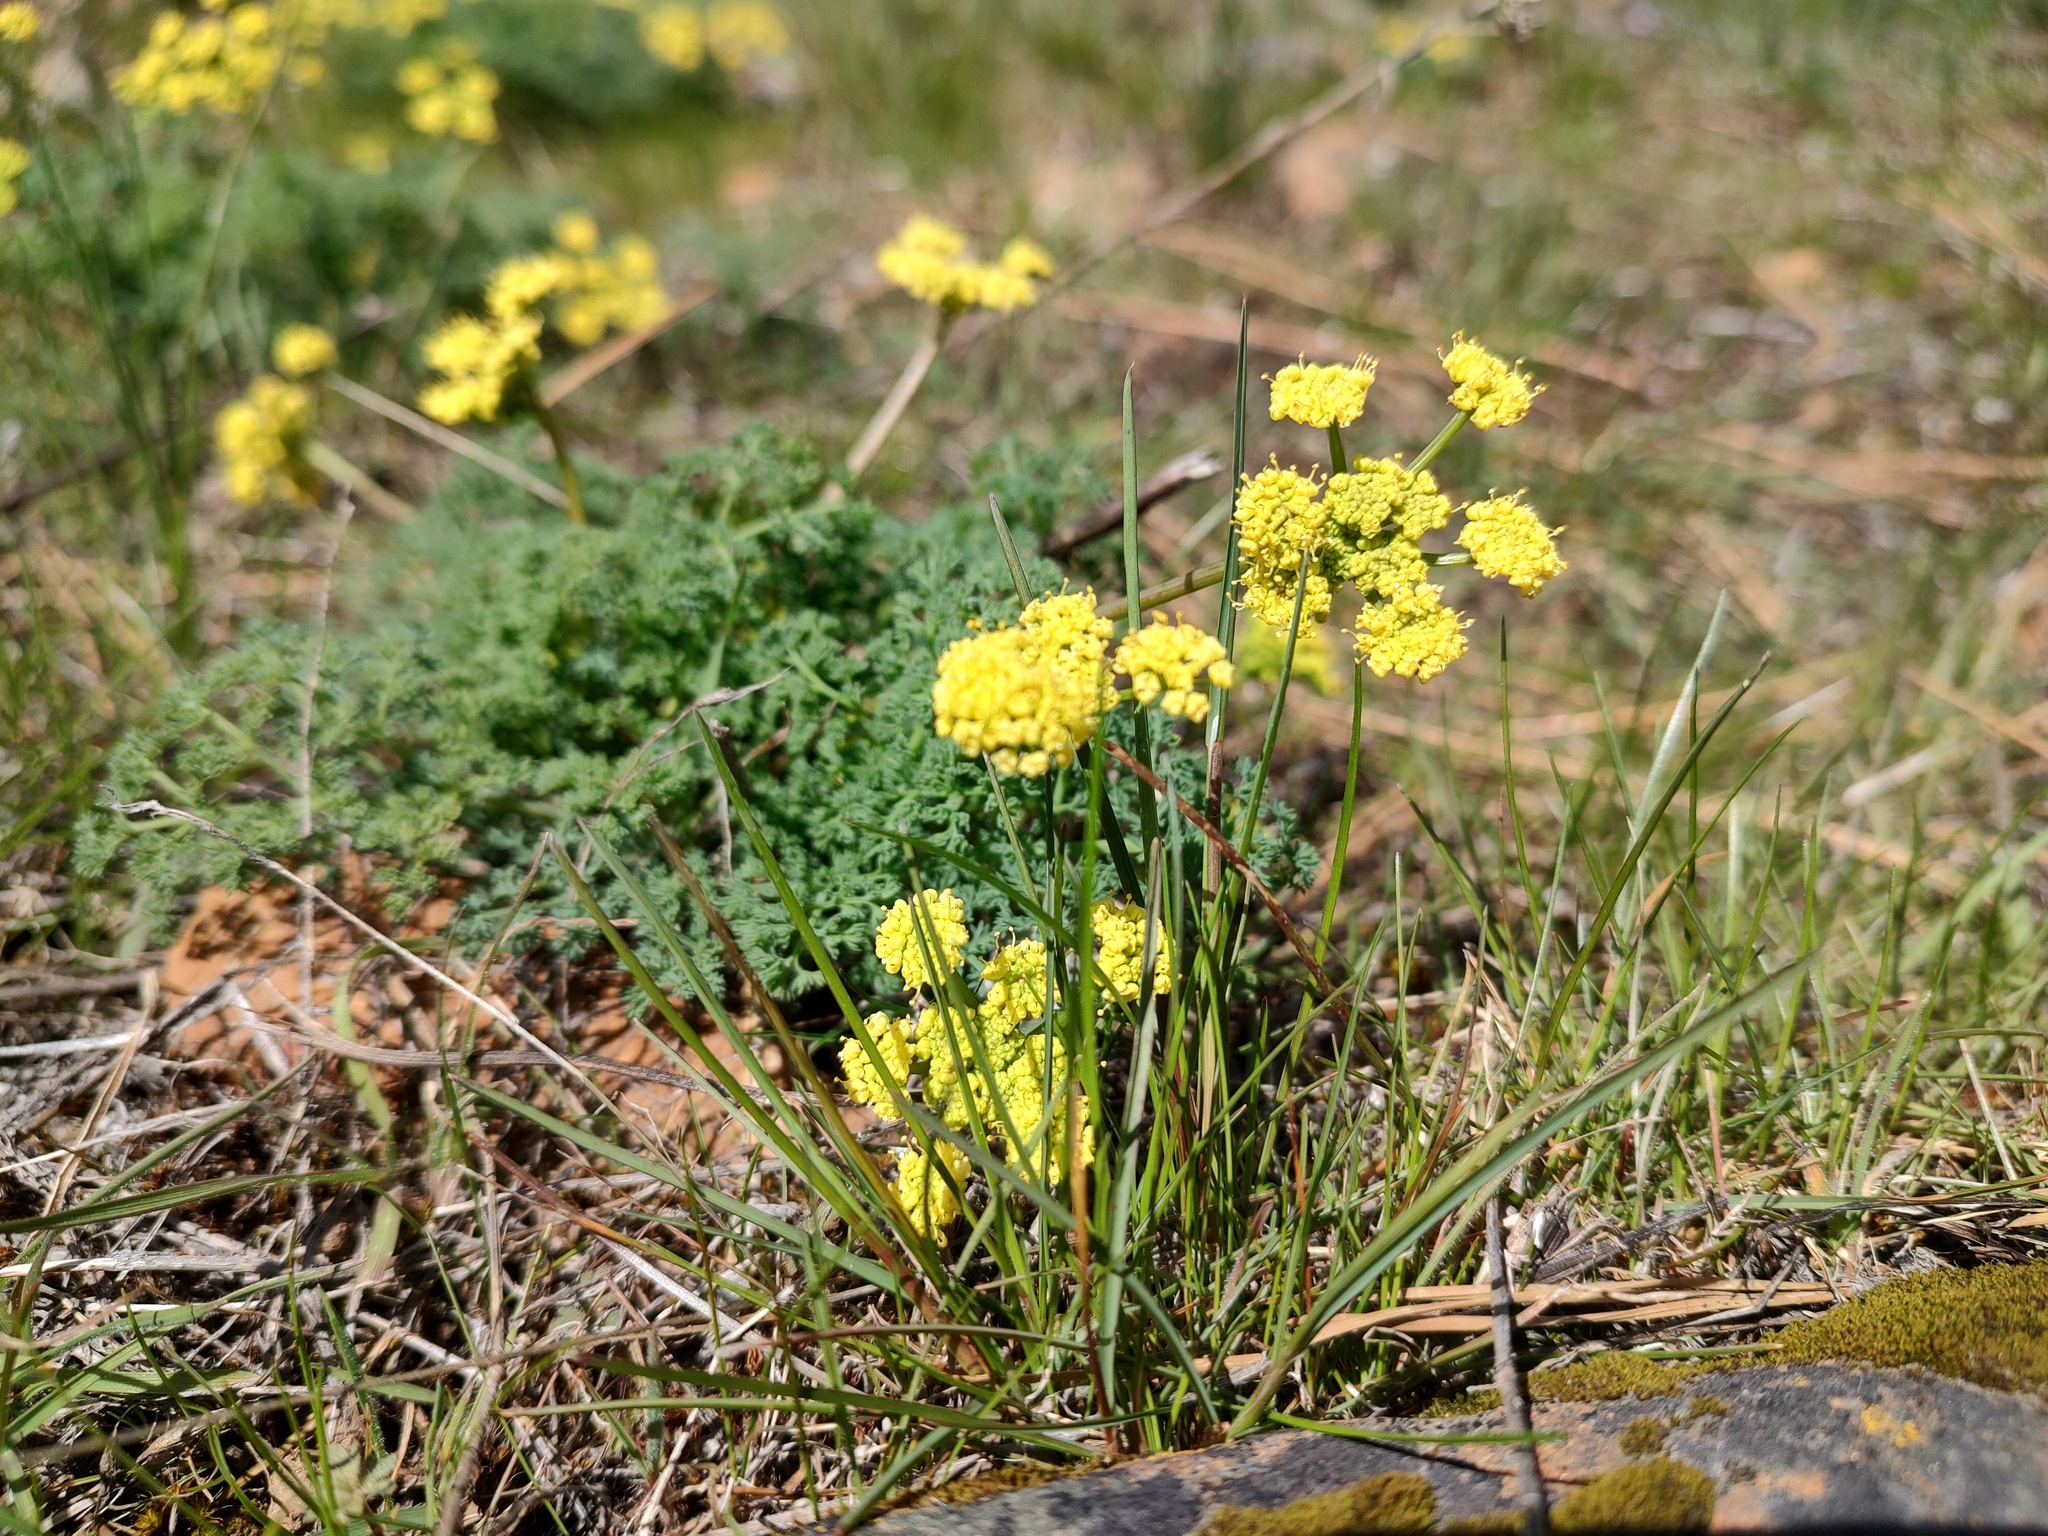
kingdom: Plantae
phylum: Tracheophyta
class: Magnoliopsida
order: Apiales
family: Apiaceae
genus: Lomatium
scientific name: Lomatium papilioniferum
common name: Butterfly lomatium
